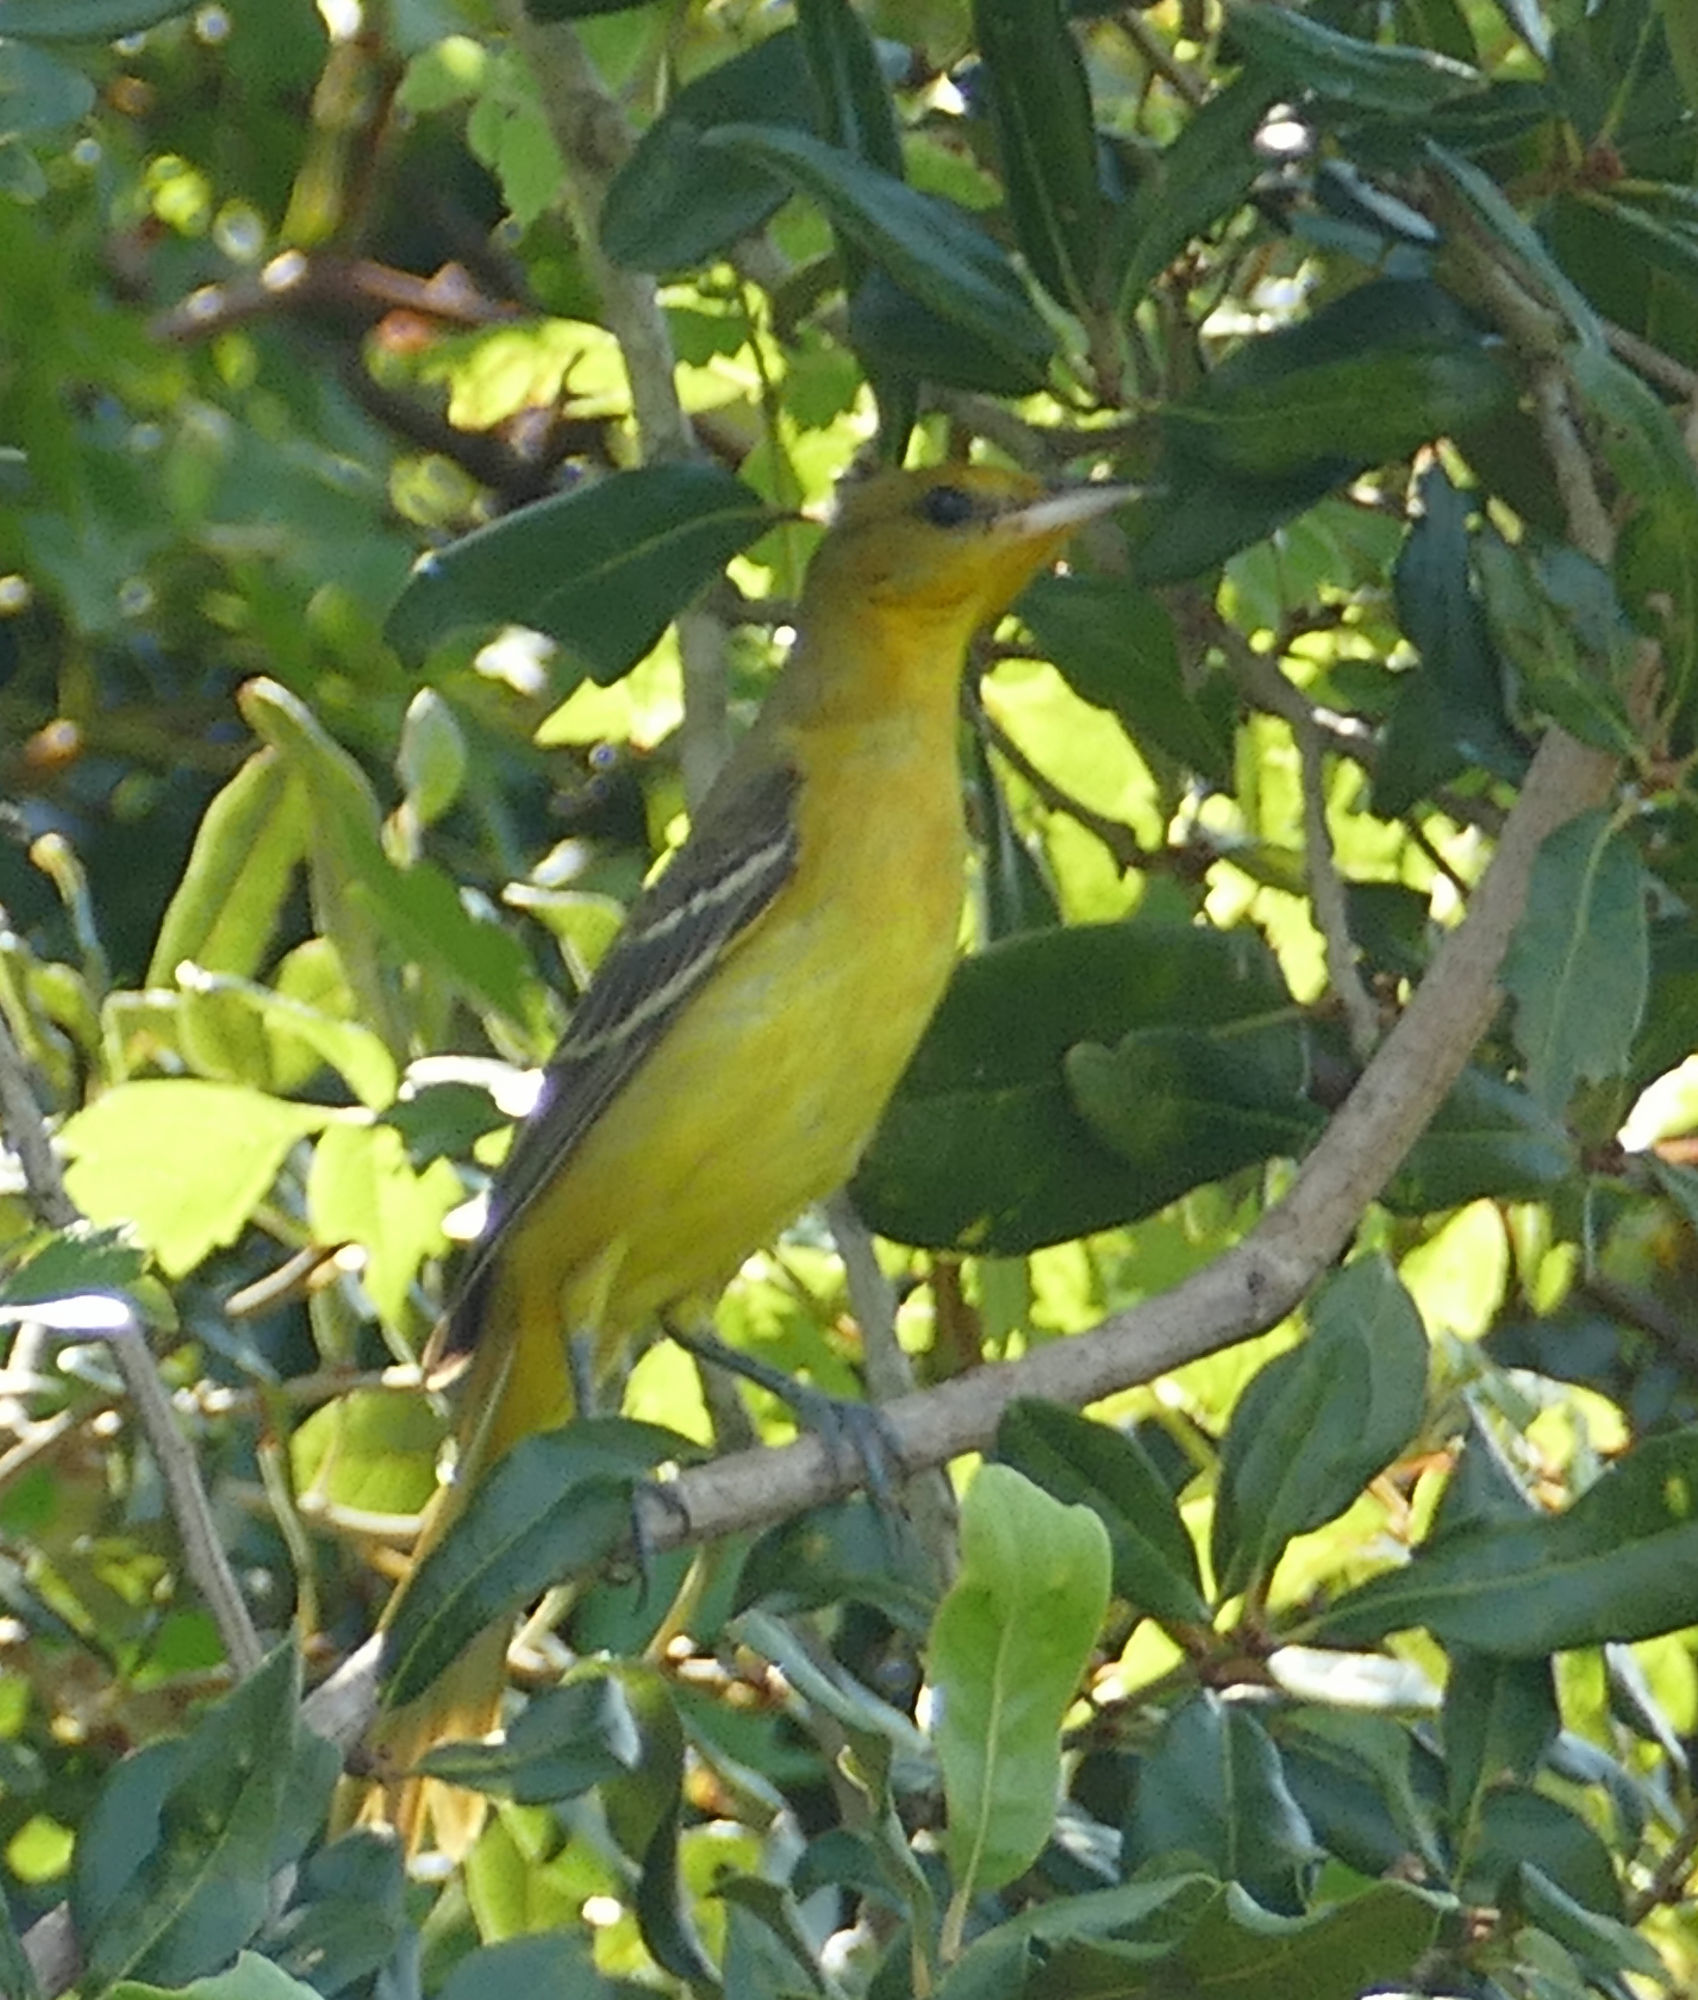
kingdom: Animalia
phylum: Chordata
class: Aves
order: Passeriformes
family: Icteridae
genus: Icterus
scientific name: Icterus spurius
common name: Orchard oriole
